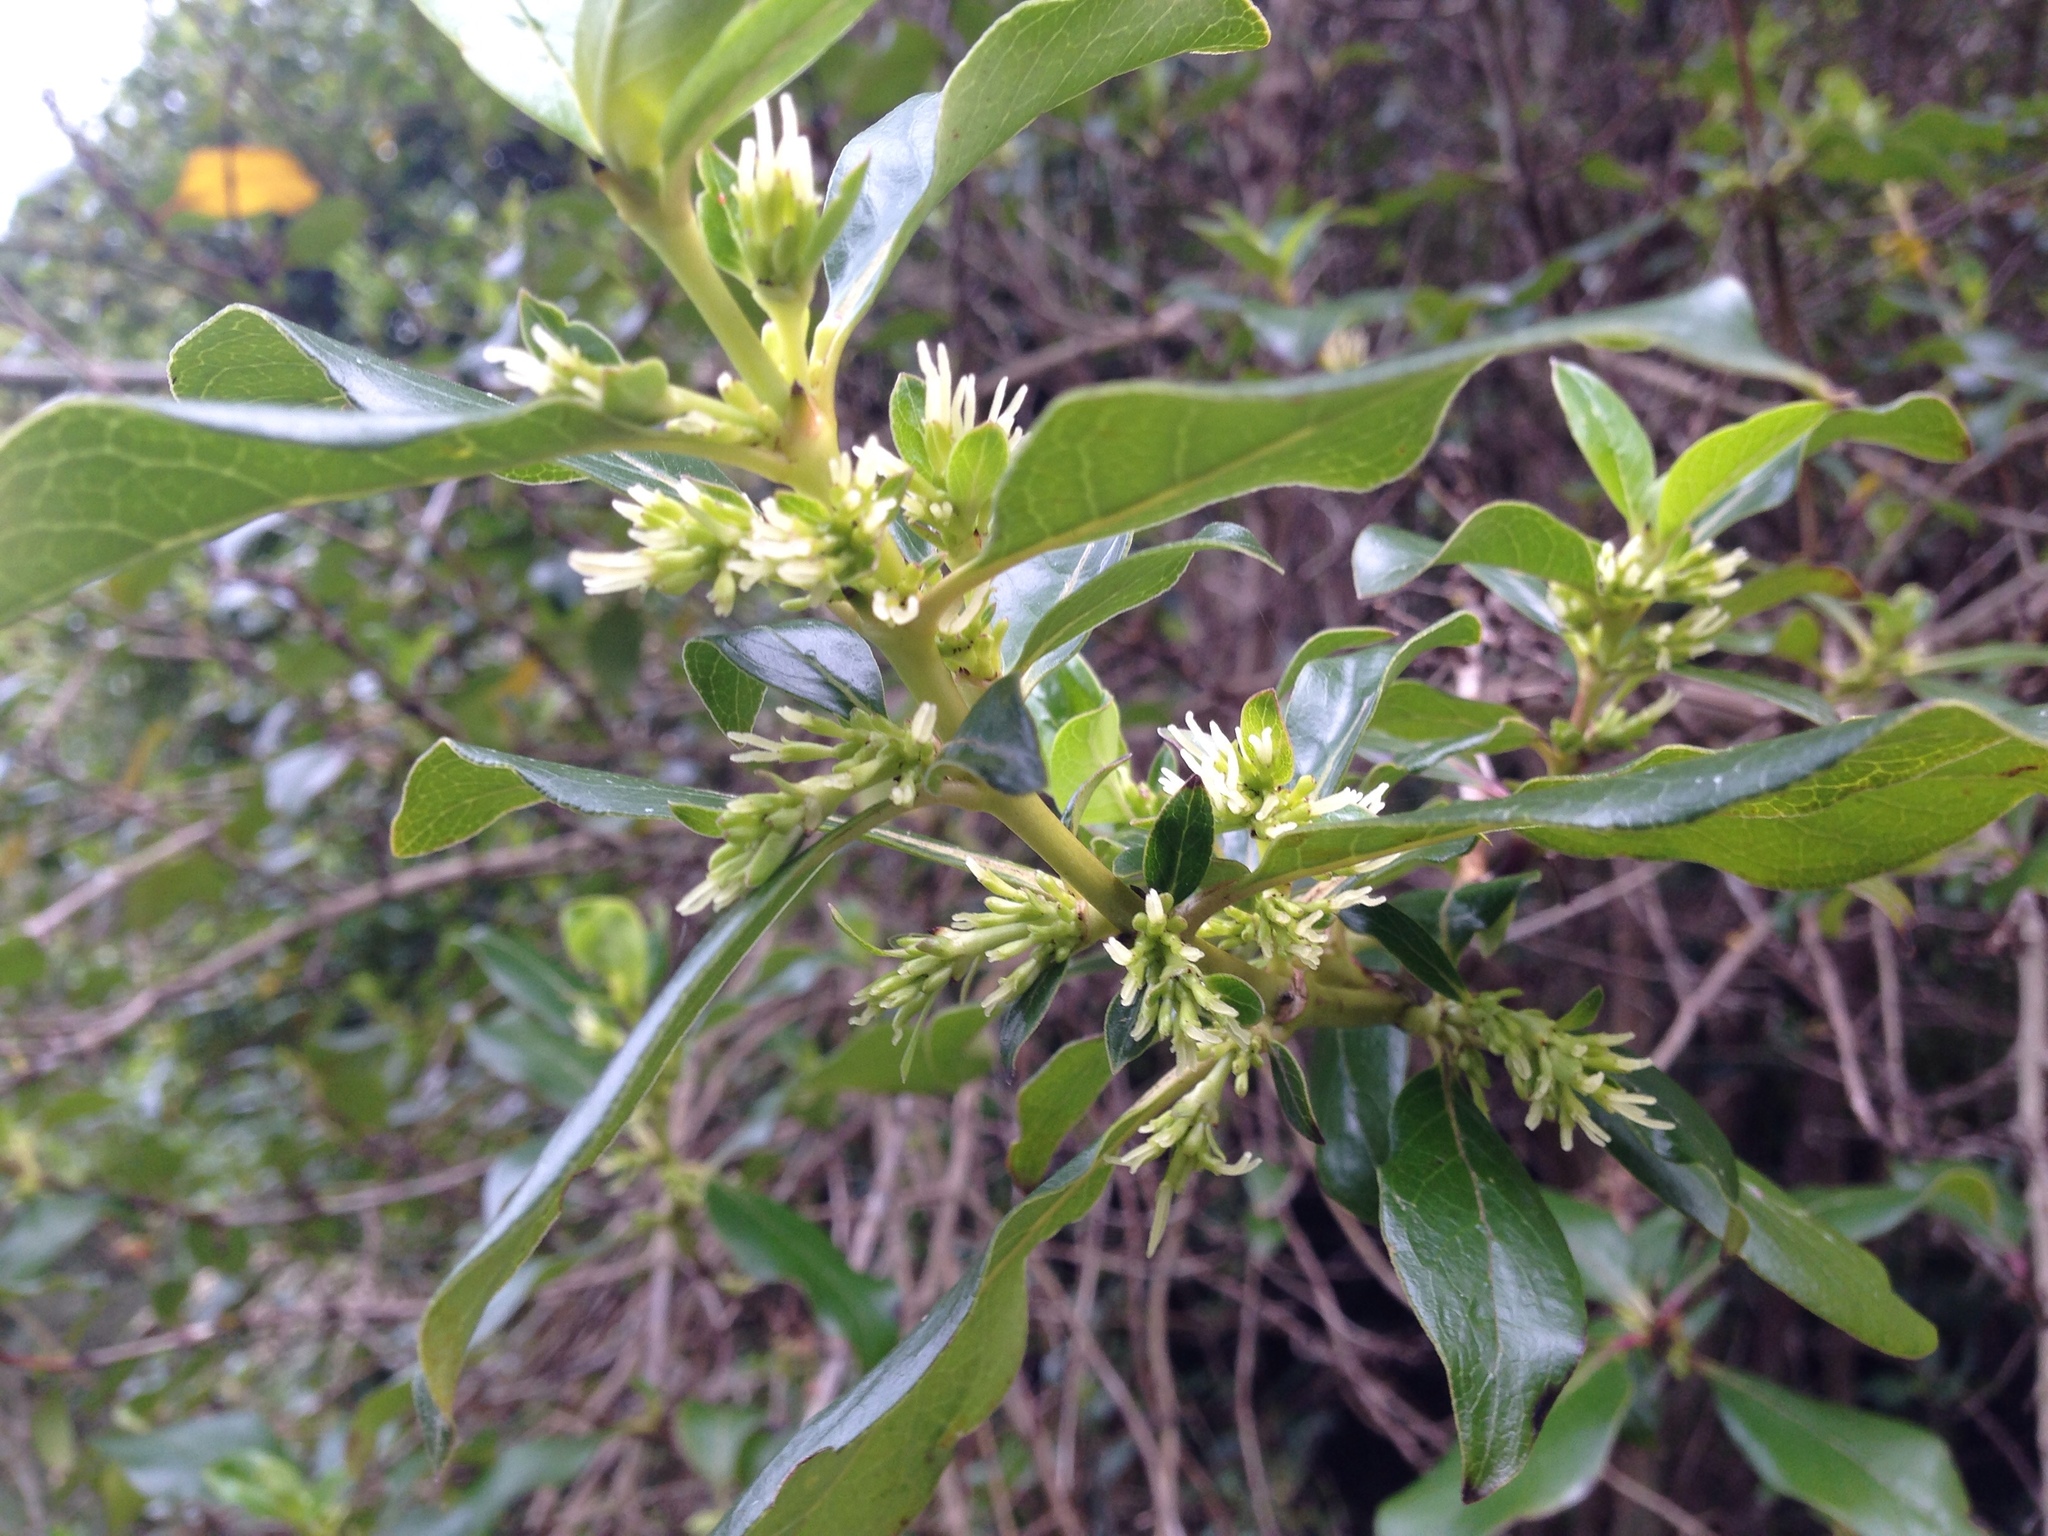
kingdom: Plantae
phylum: Tracheophyta
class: Magnoliopsida
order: Gentianales
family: Rubiaceae
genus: Coprosma
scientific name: Coprosma robusta
